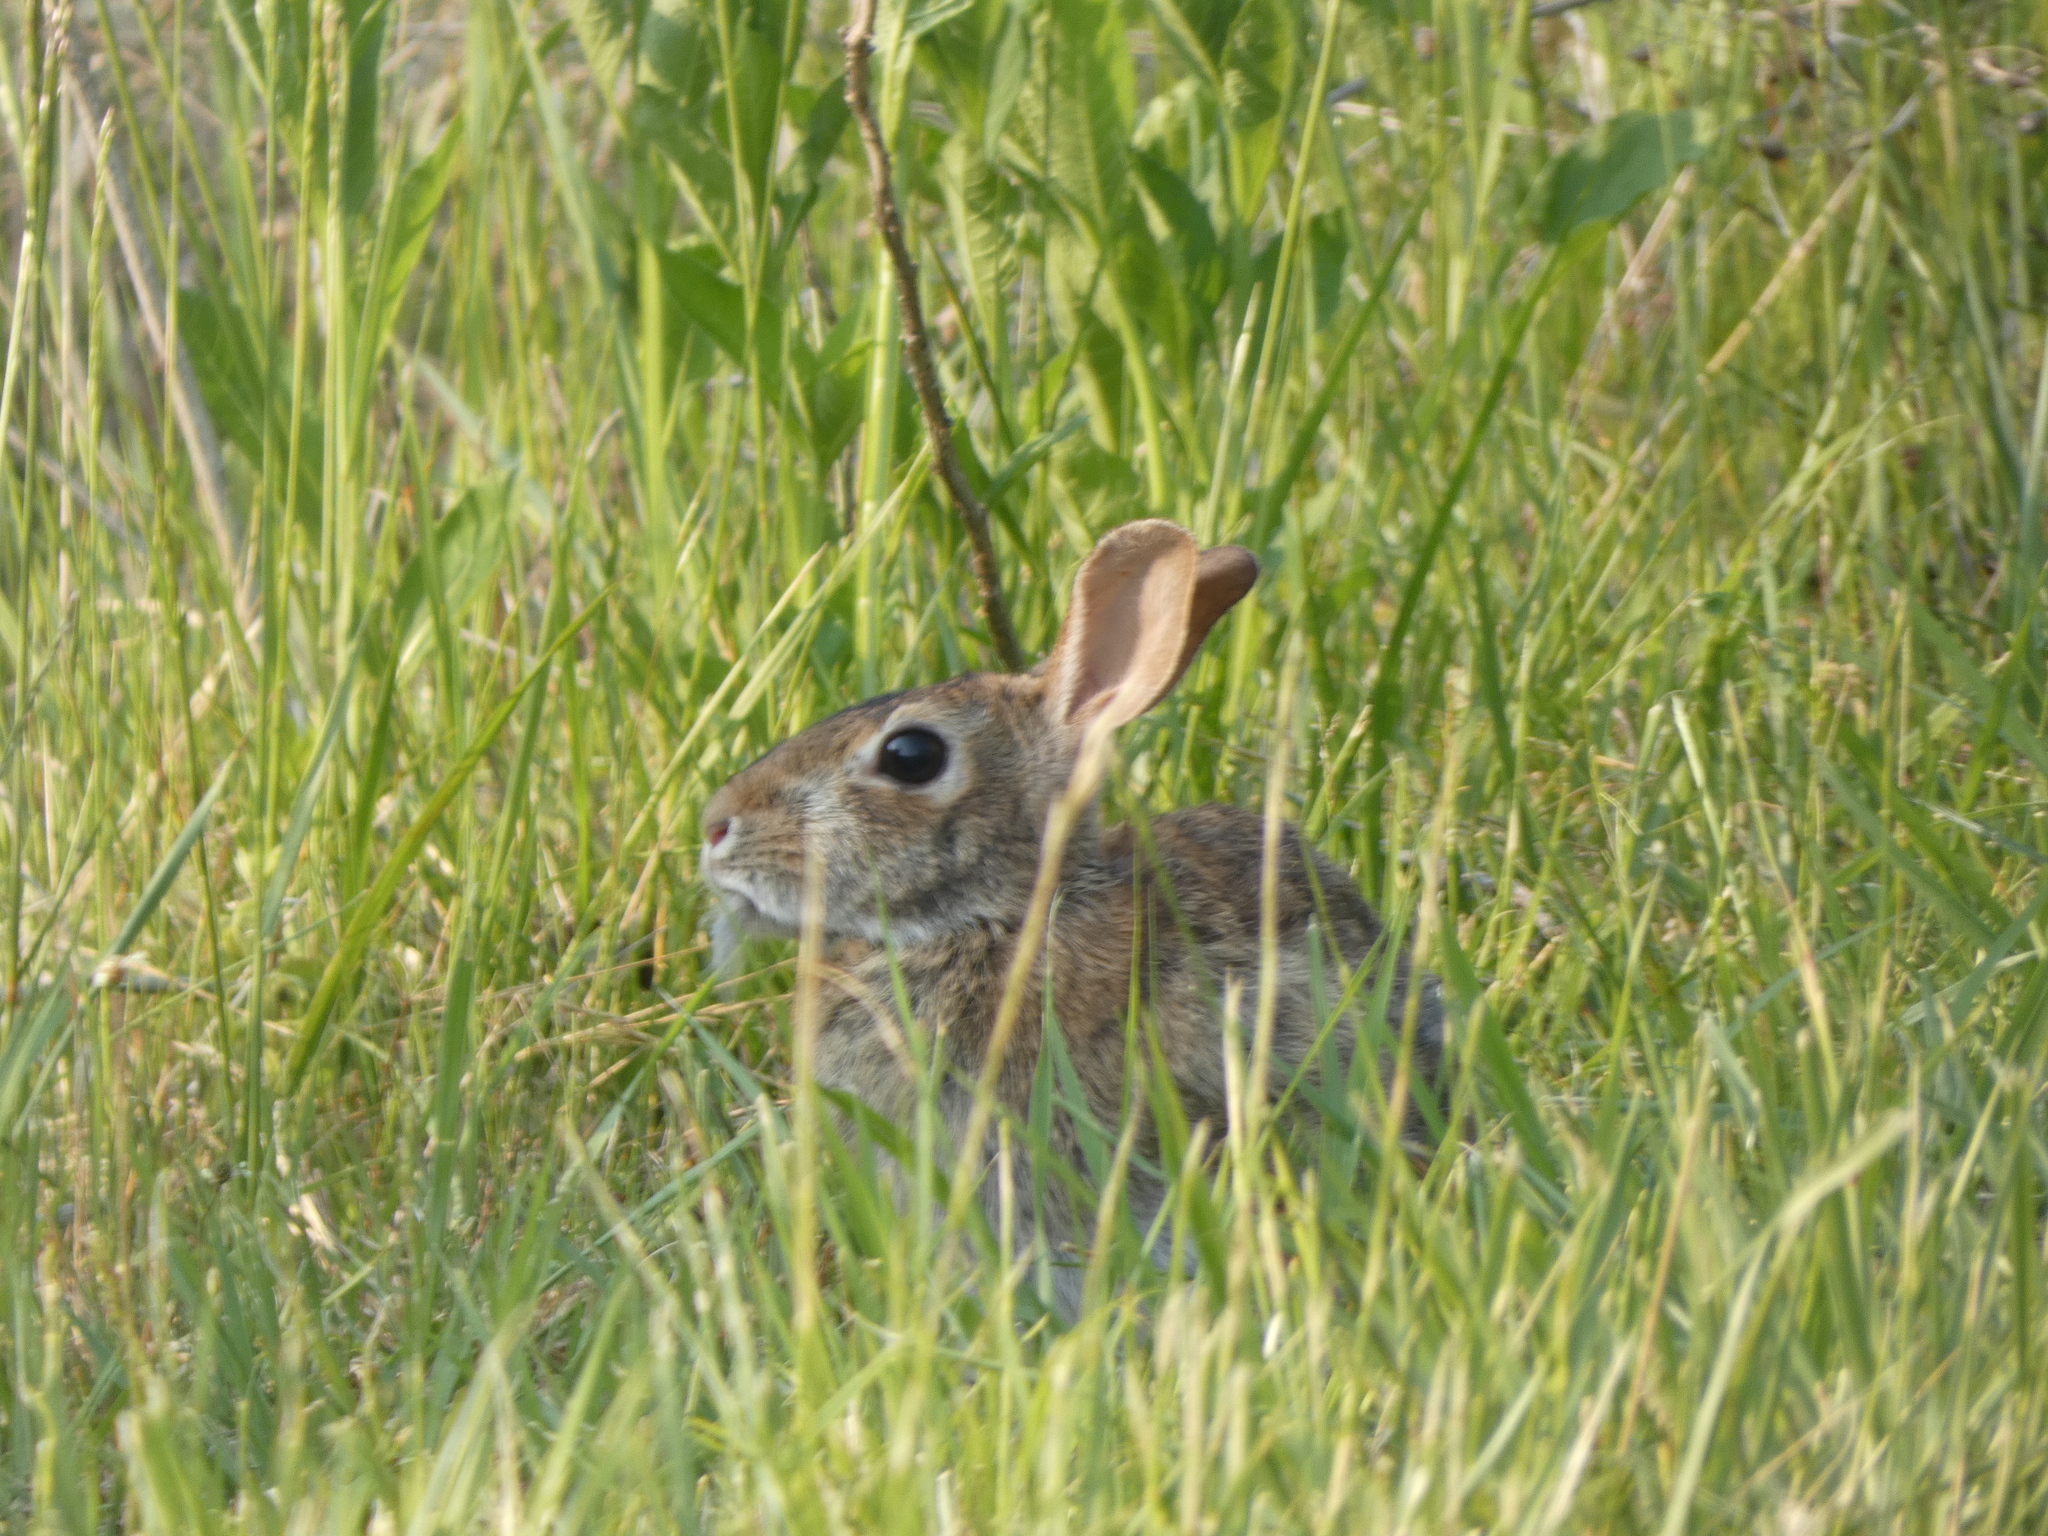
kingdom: Animalia
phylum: Chordata
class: Mammalia
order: Lagomorpha
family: Leporidae
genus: Sylvilagus
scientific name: Sylvilagus floridanus
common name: Eastern cottontail
